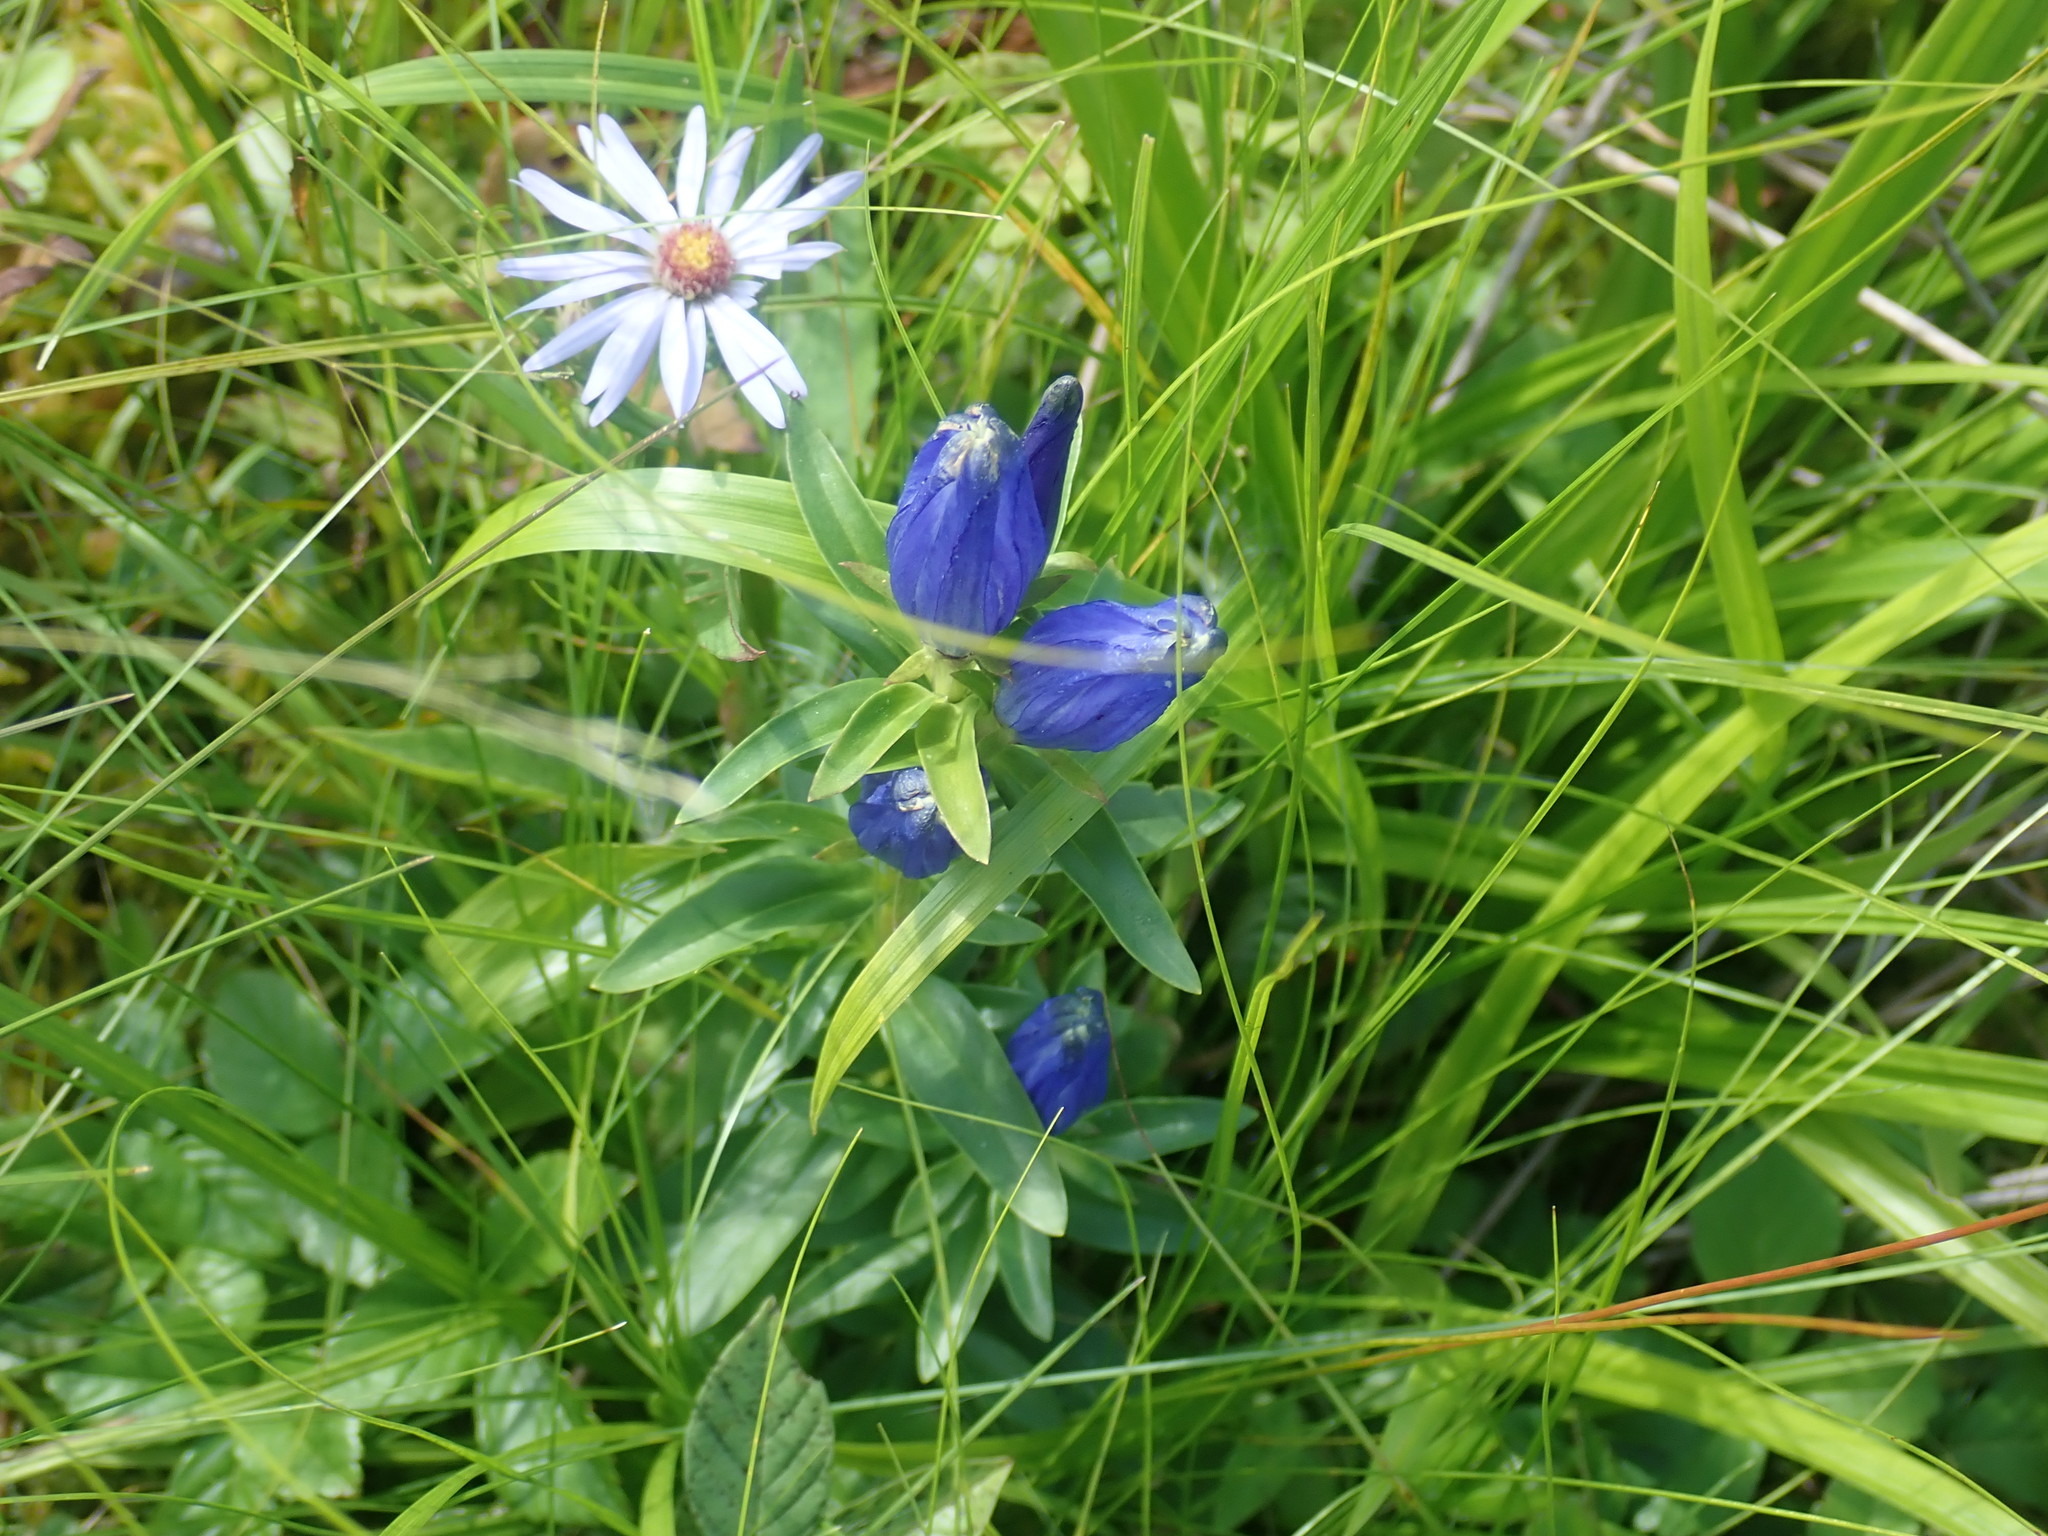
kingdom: Plantae
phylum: Tracheophyta
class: Magnoliopsida
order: Gentianales
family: Gentianaceae
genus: Gentiana
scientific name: Gentiana linearis
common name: Bastard gentian
